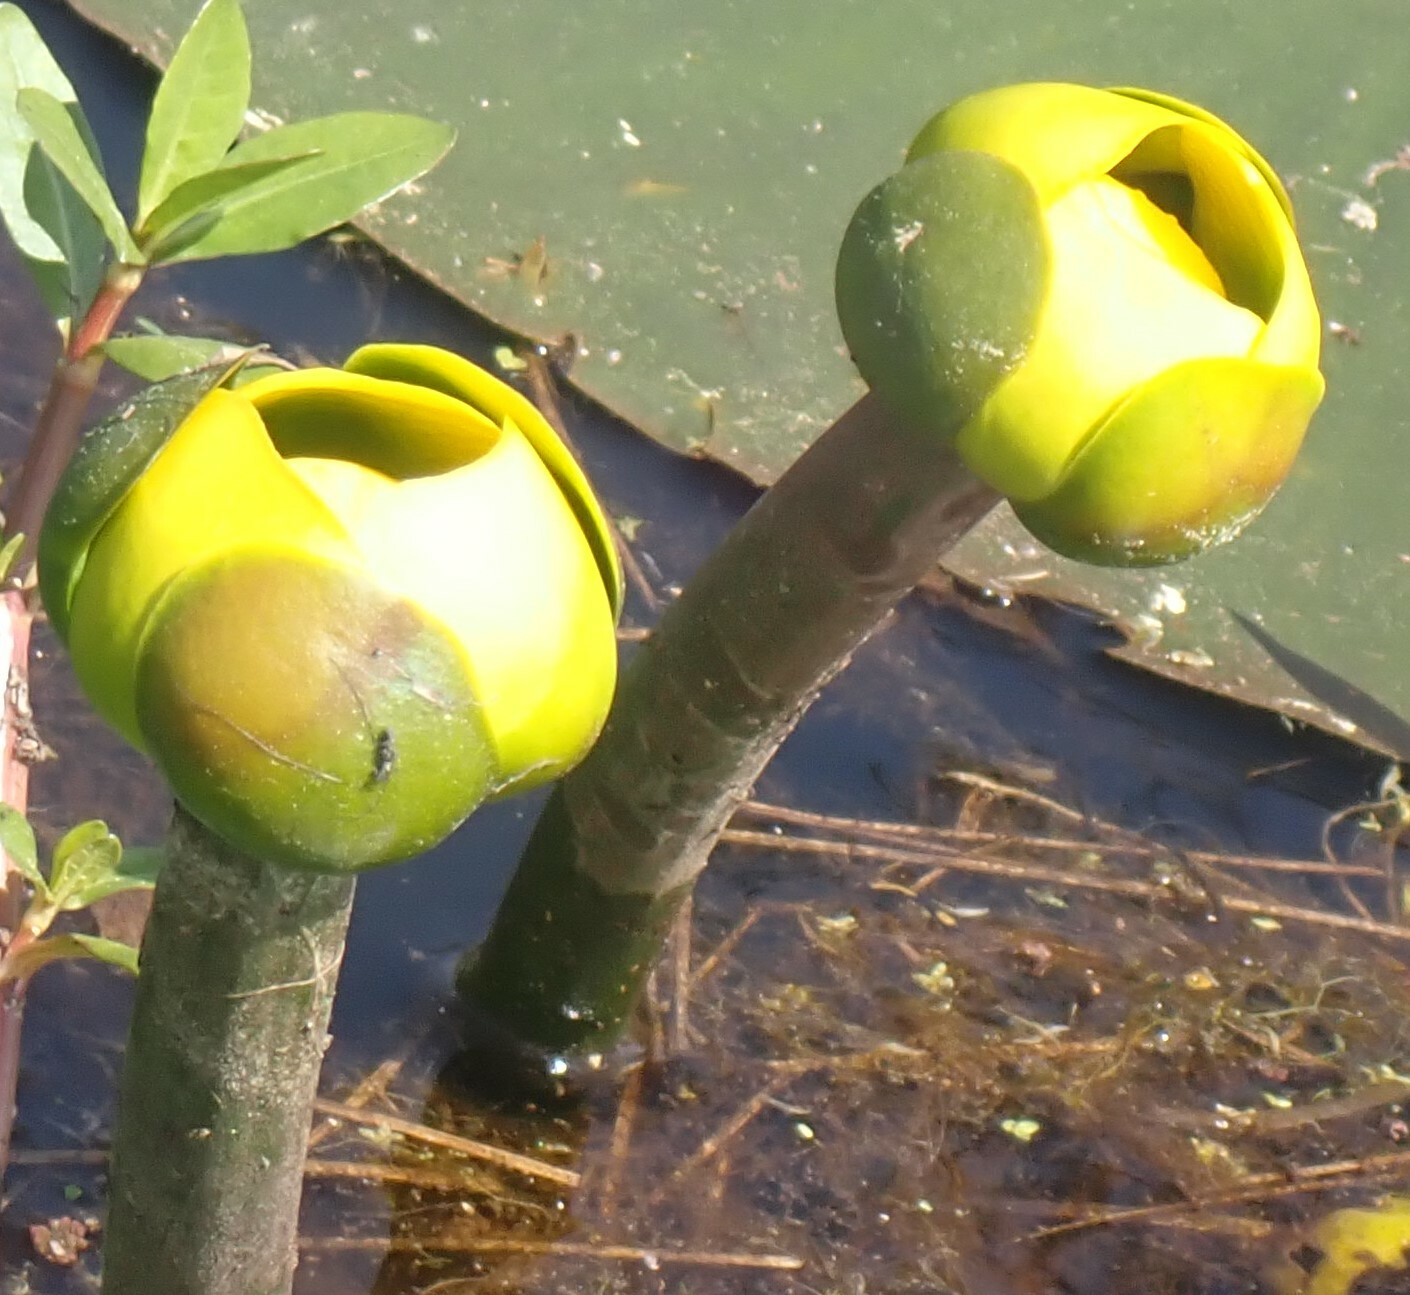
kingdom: Plantae
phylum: Tracheophyta
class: Magnoliopsida
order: Nymphaeales
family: Nymphaeaceae
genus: Nuphar
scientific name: Nuphar advena
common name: Spatter-dock
